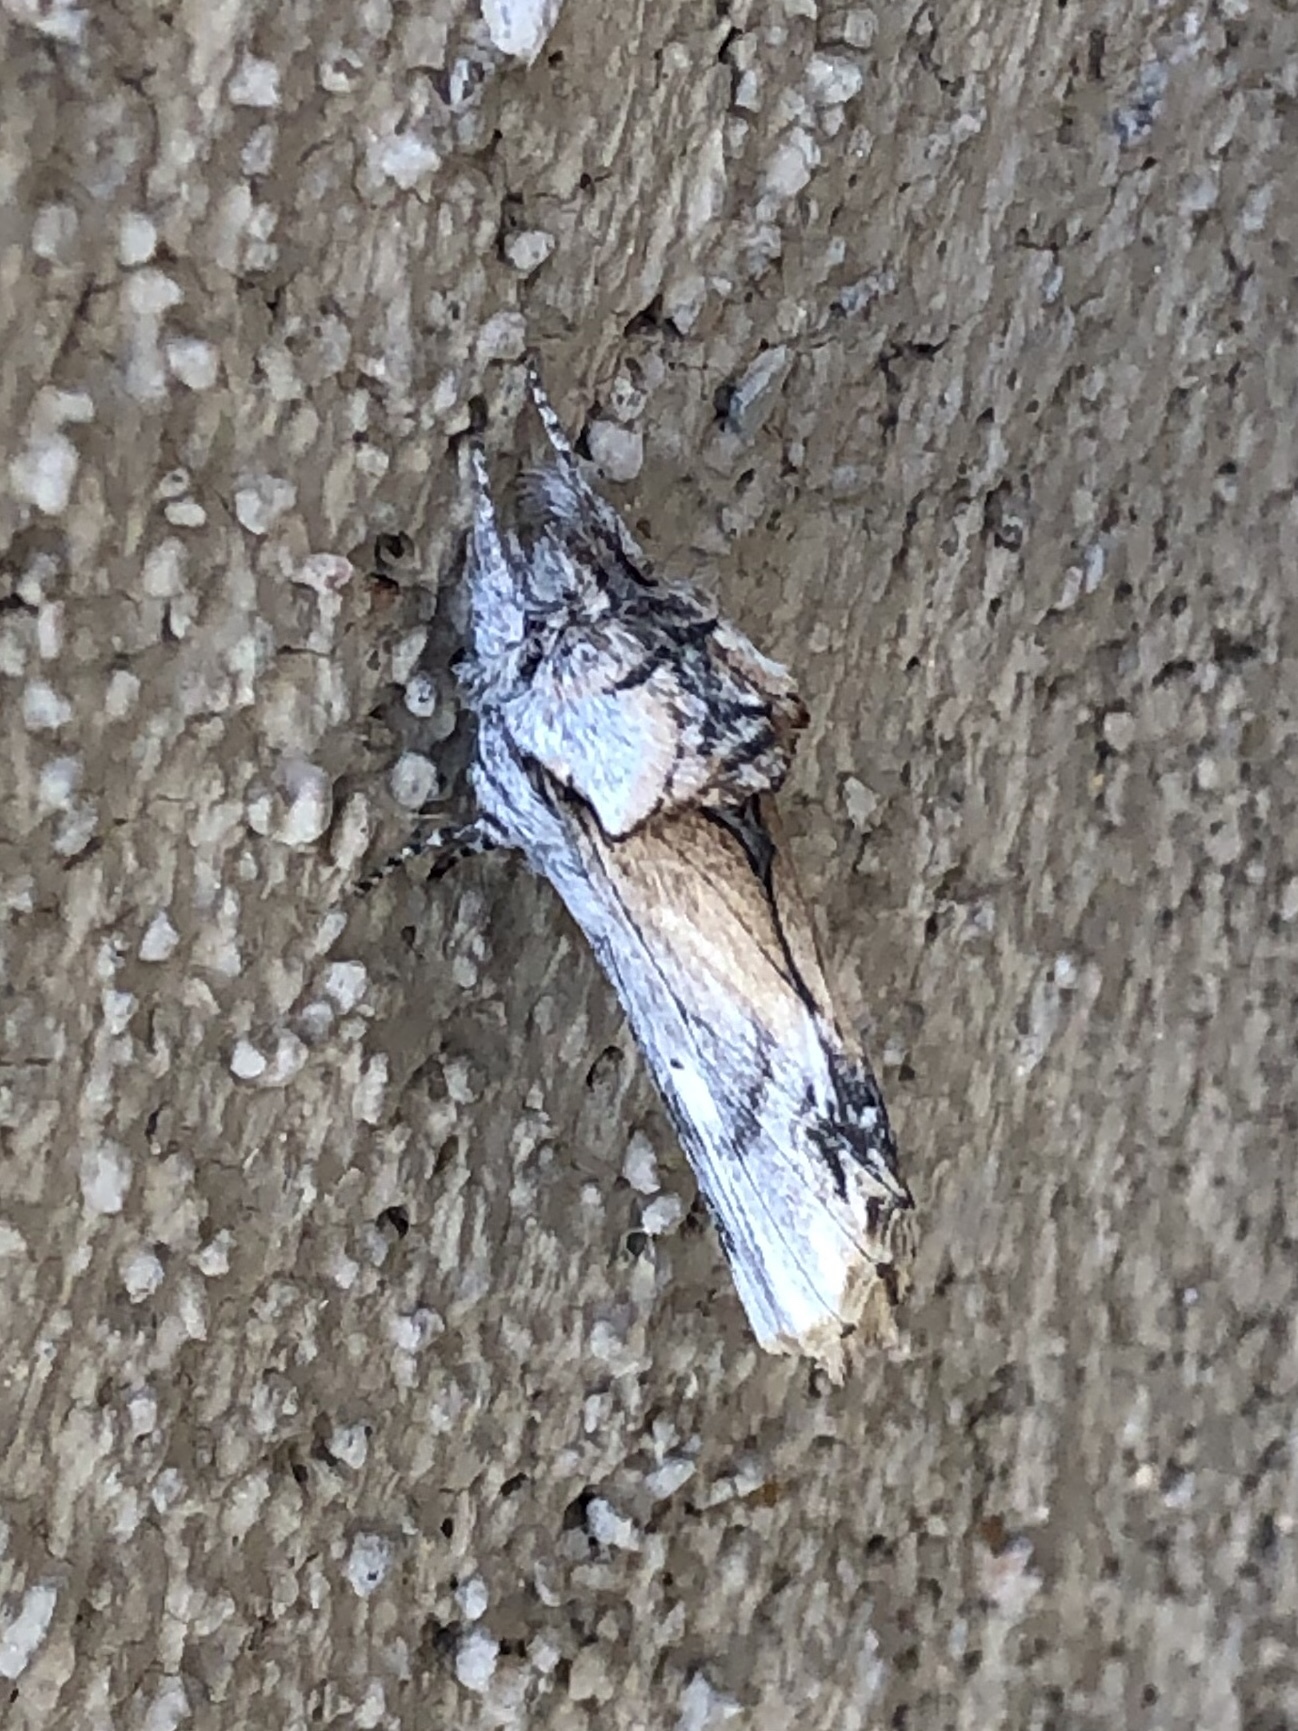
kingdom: Animalia
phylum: Arthropoda
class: Insecta
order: Lepidoptera
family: Notodontidae
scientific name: Notodontidae
